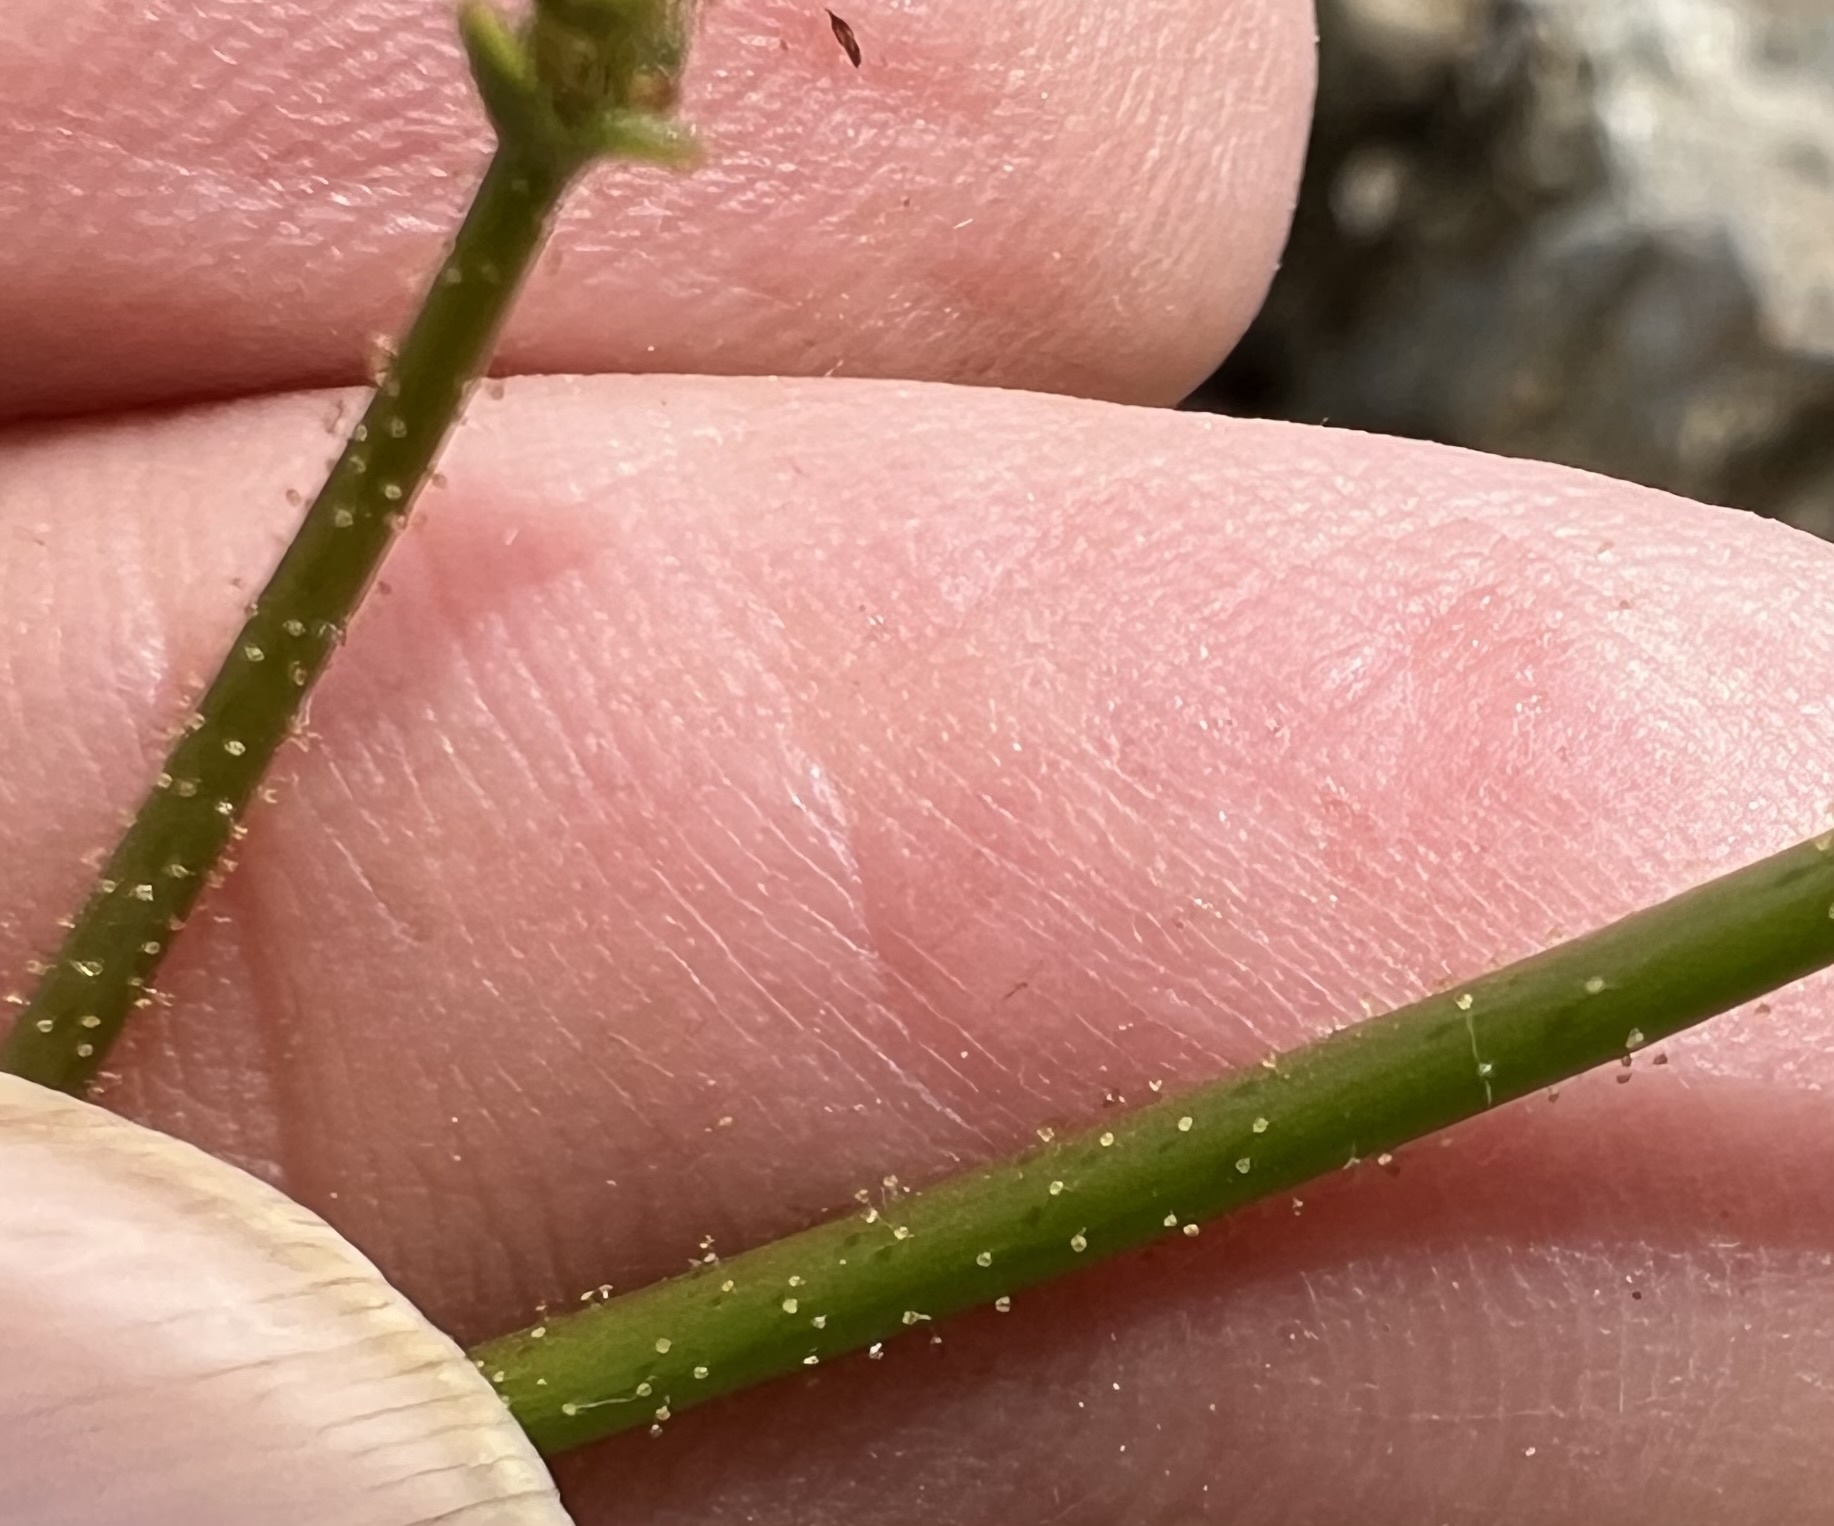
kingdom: Plantae
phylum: Tracheophyta
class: Magnoliopsida
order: Caryophyllales
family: Polygonaceae
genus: Eriogonum
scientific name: Eriogonum glandulosum
